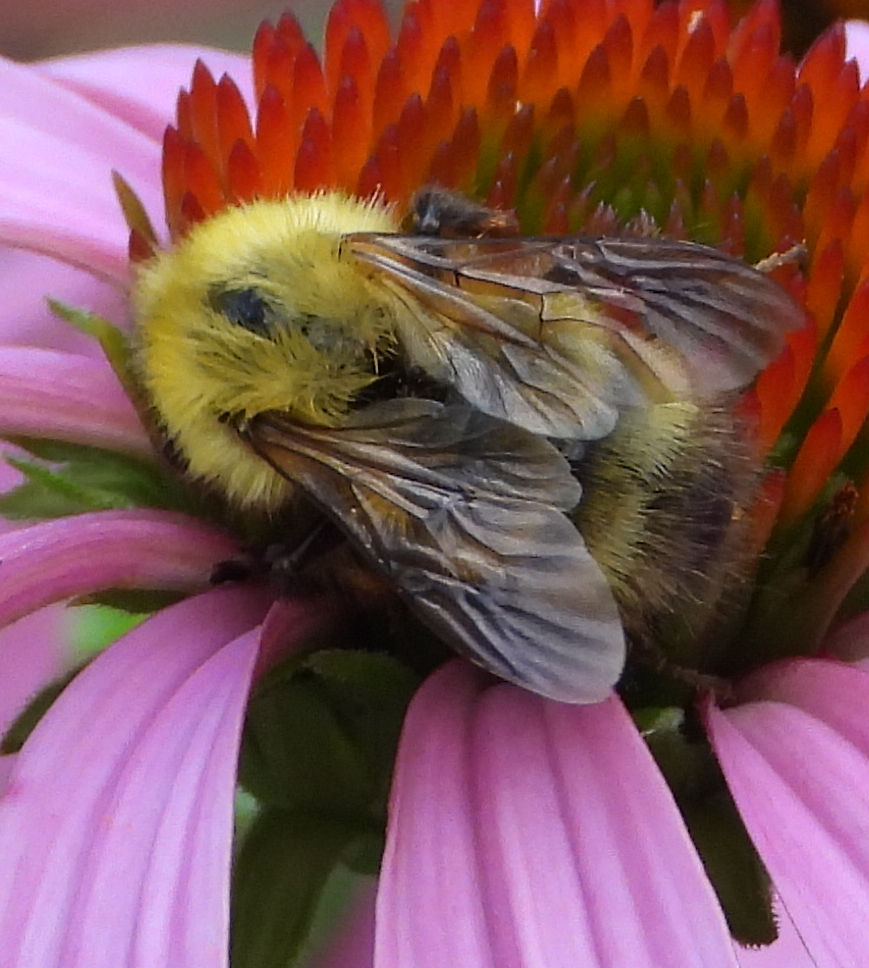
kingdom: Animalia
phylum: Arthropoda
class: Insecta
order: Hymenoptera
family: Apidae
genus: Bombus
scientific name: Bombus perplexus
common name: Confusing bumble bee
